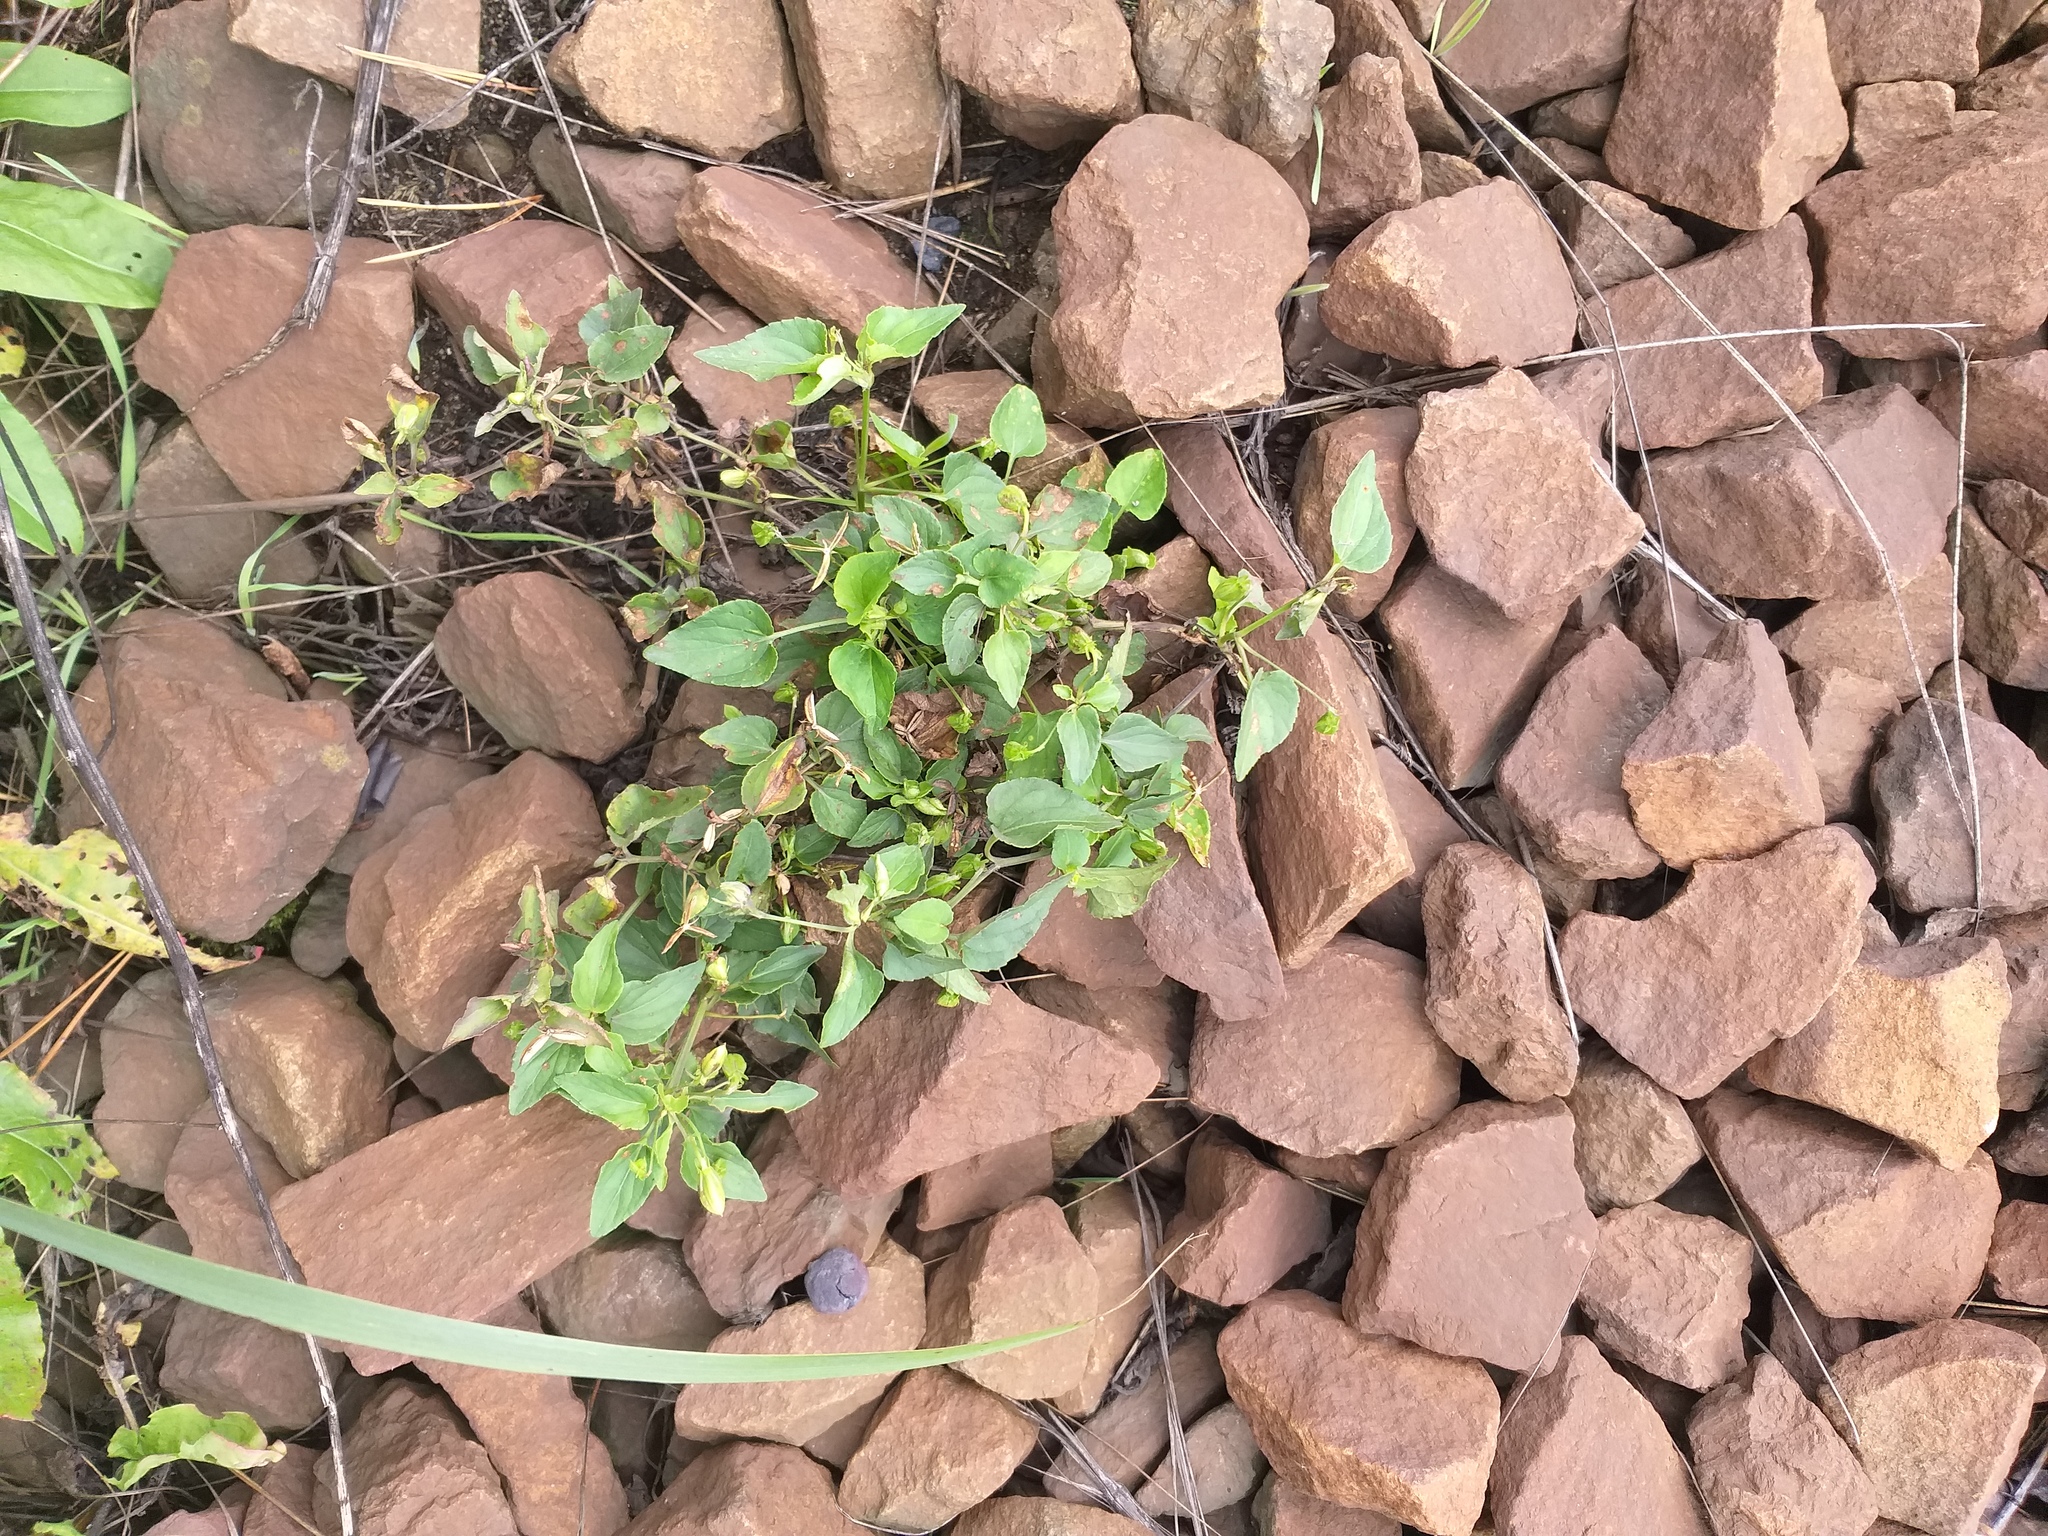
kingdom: Plantae
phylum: Tracheophyta
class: Magnoliopsida
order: Malpighiales
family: Violaceae
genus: Viola
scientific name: Viola canina
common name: Heath dog-violet
